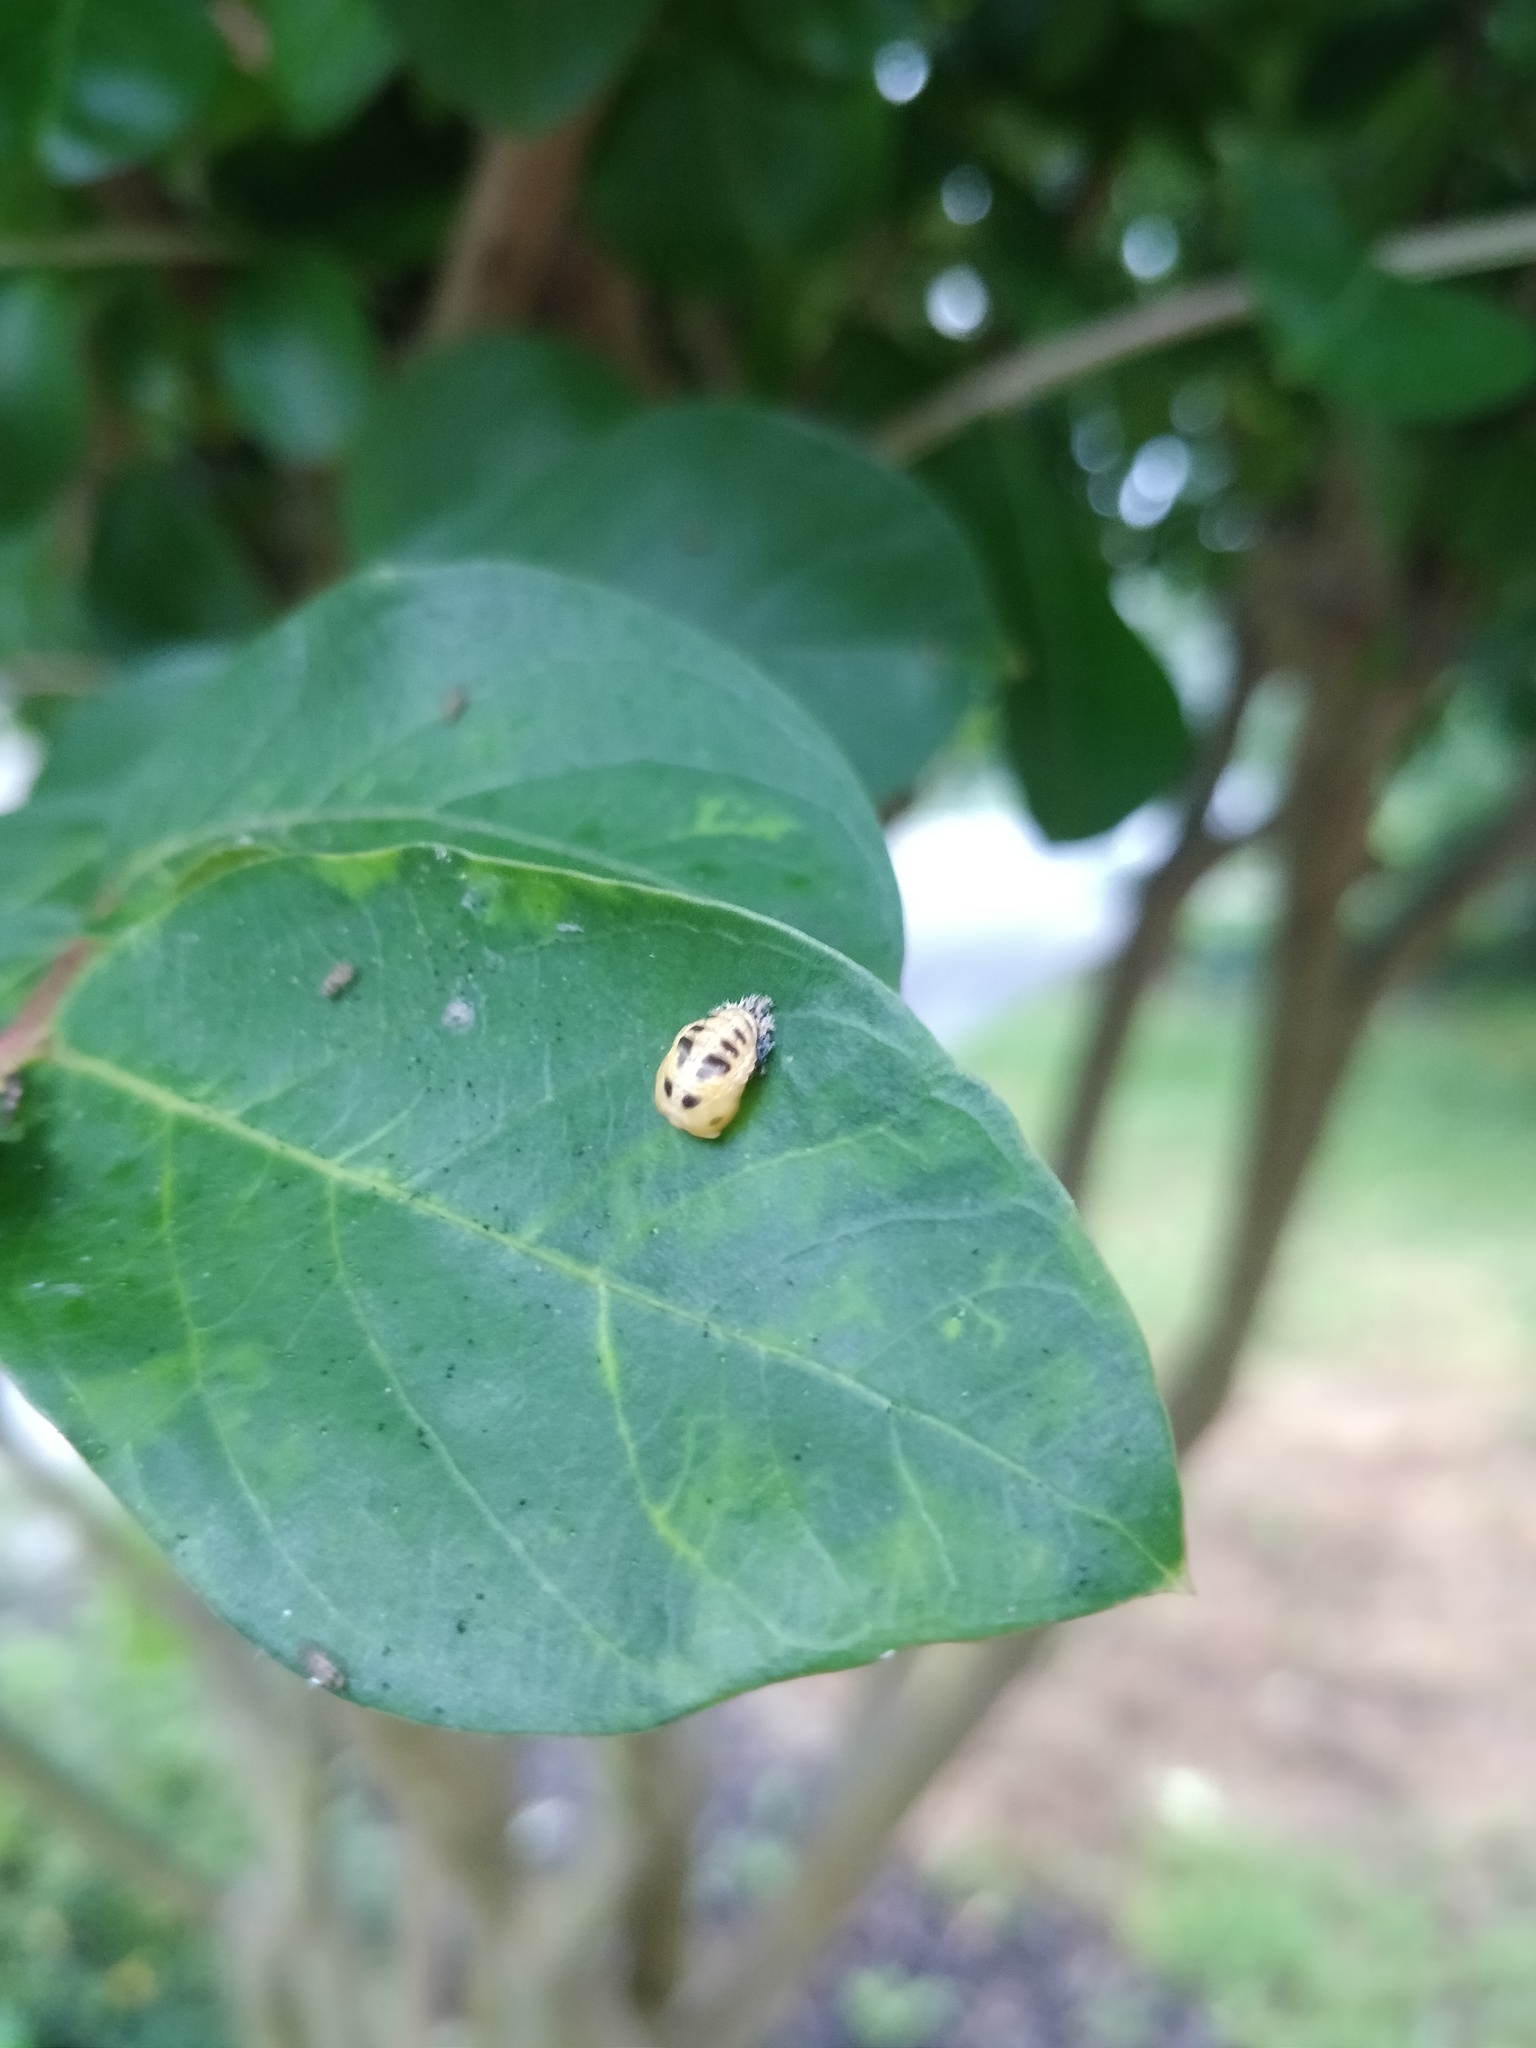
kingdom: Animalia
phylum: Arthropoda
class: Insecta
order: Coleoptera
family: Coccinellidae
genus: Harmonia
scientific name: Harmonia axyridis
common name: Harlequin ladybird
